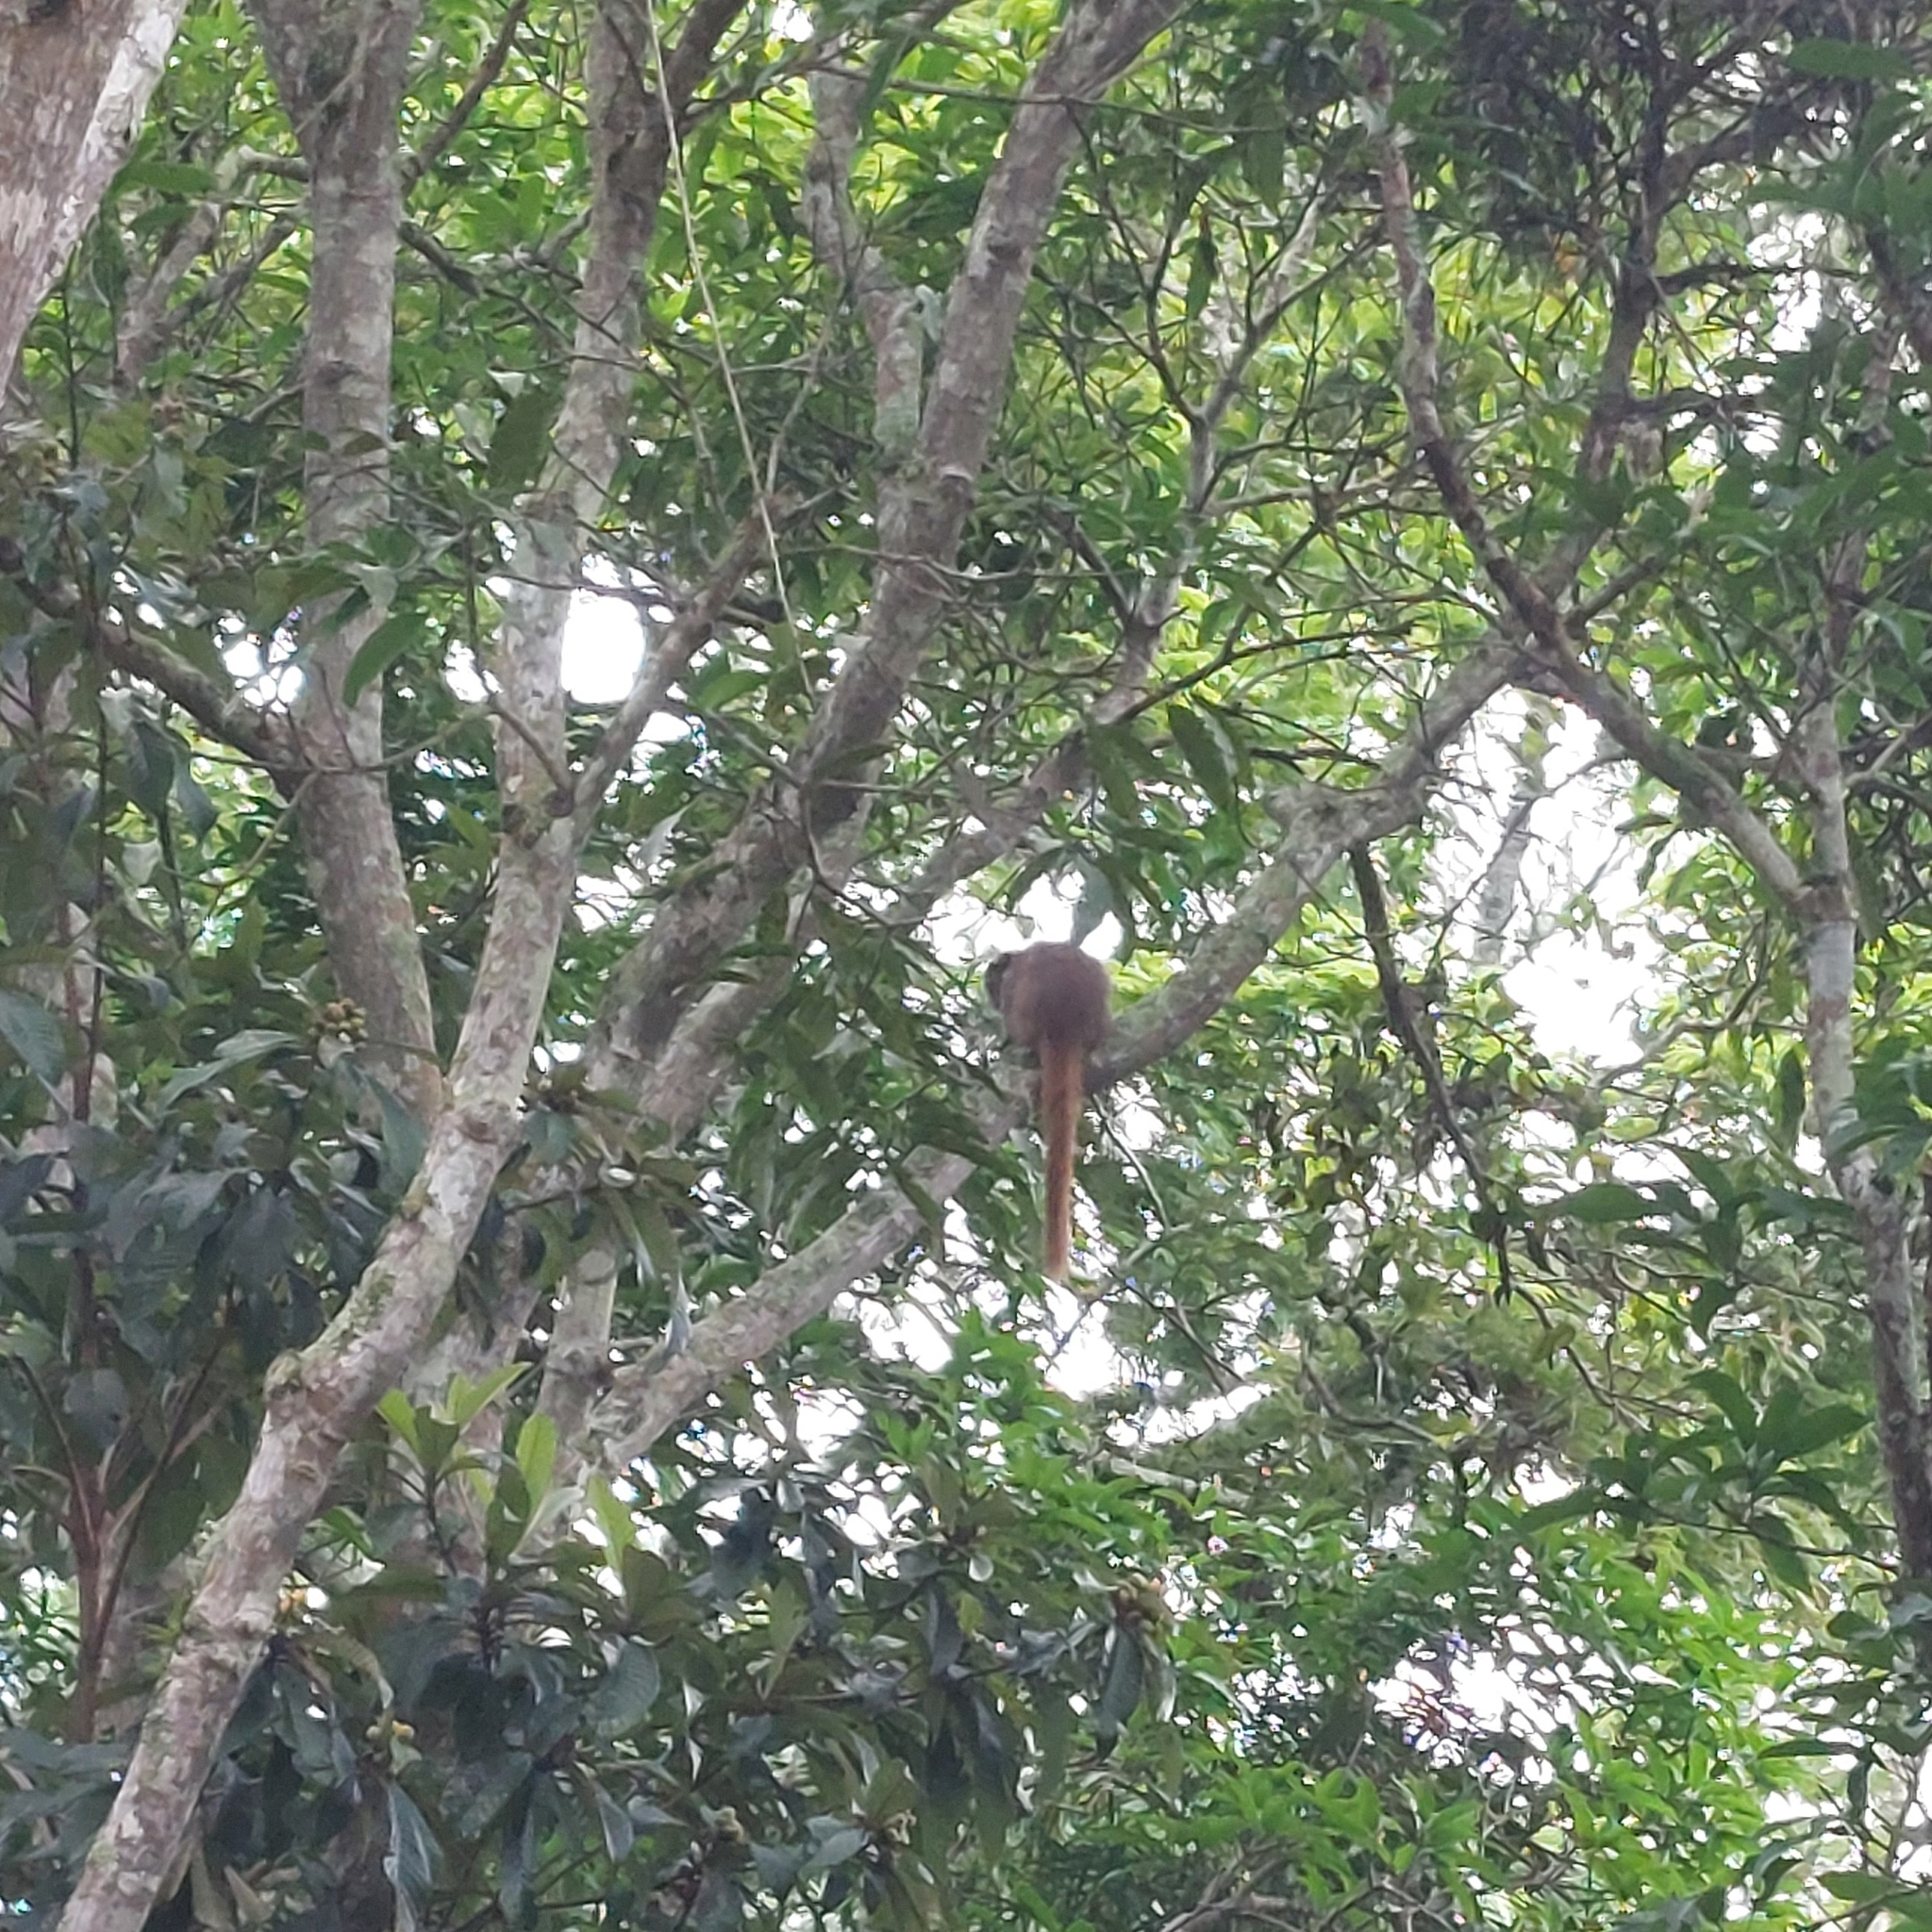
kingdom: Animalia
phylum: Chordata
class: Mammalia
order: Primates
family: Pitheciidae
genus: Callicebus
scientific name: Callicebus nigrifrons
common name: Black-fronted titi
